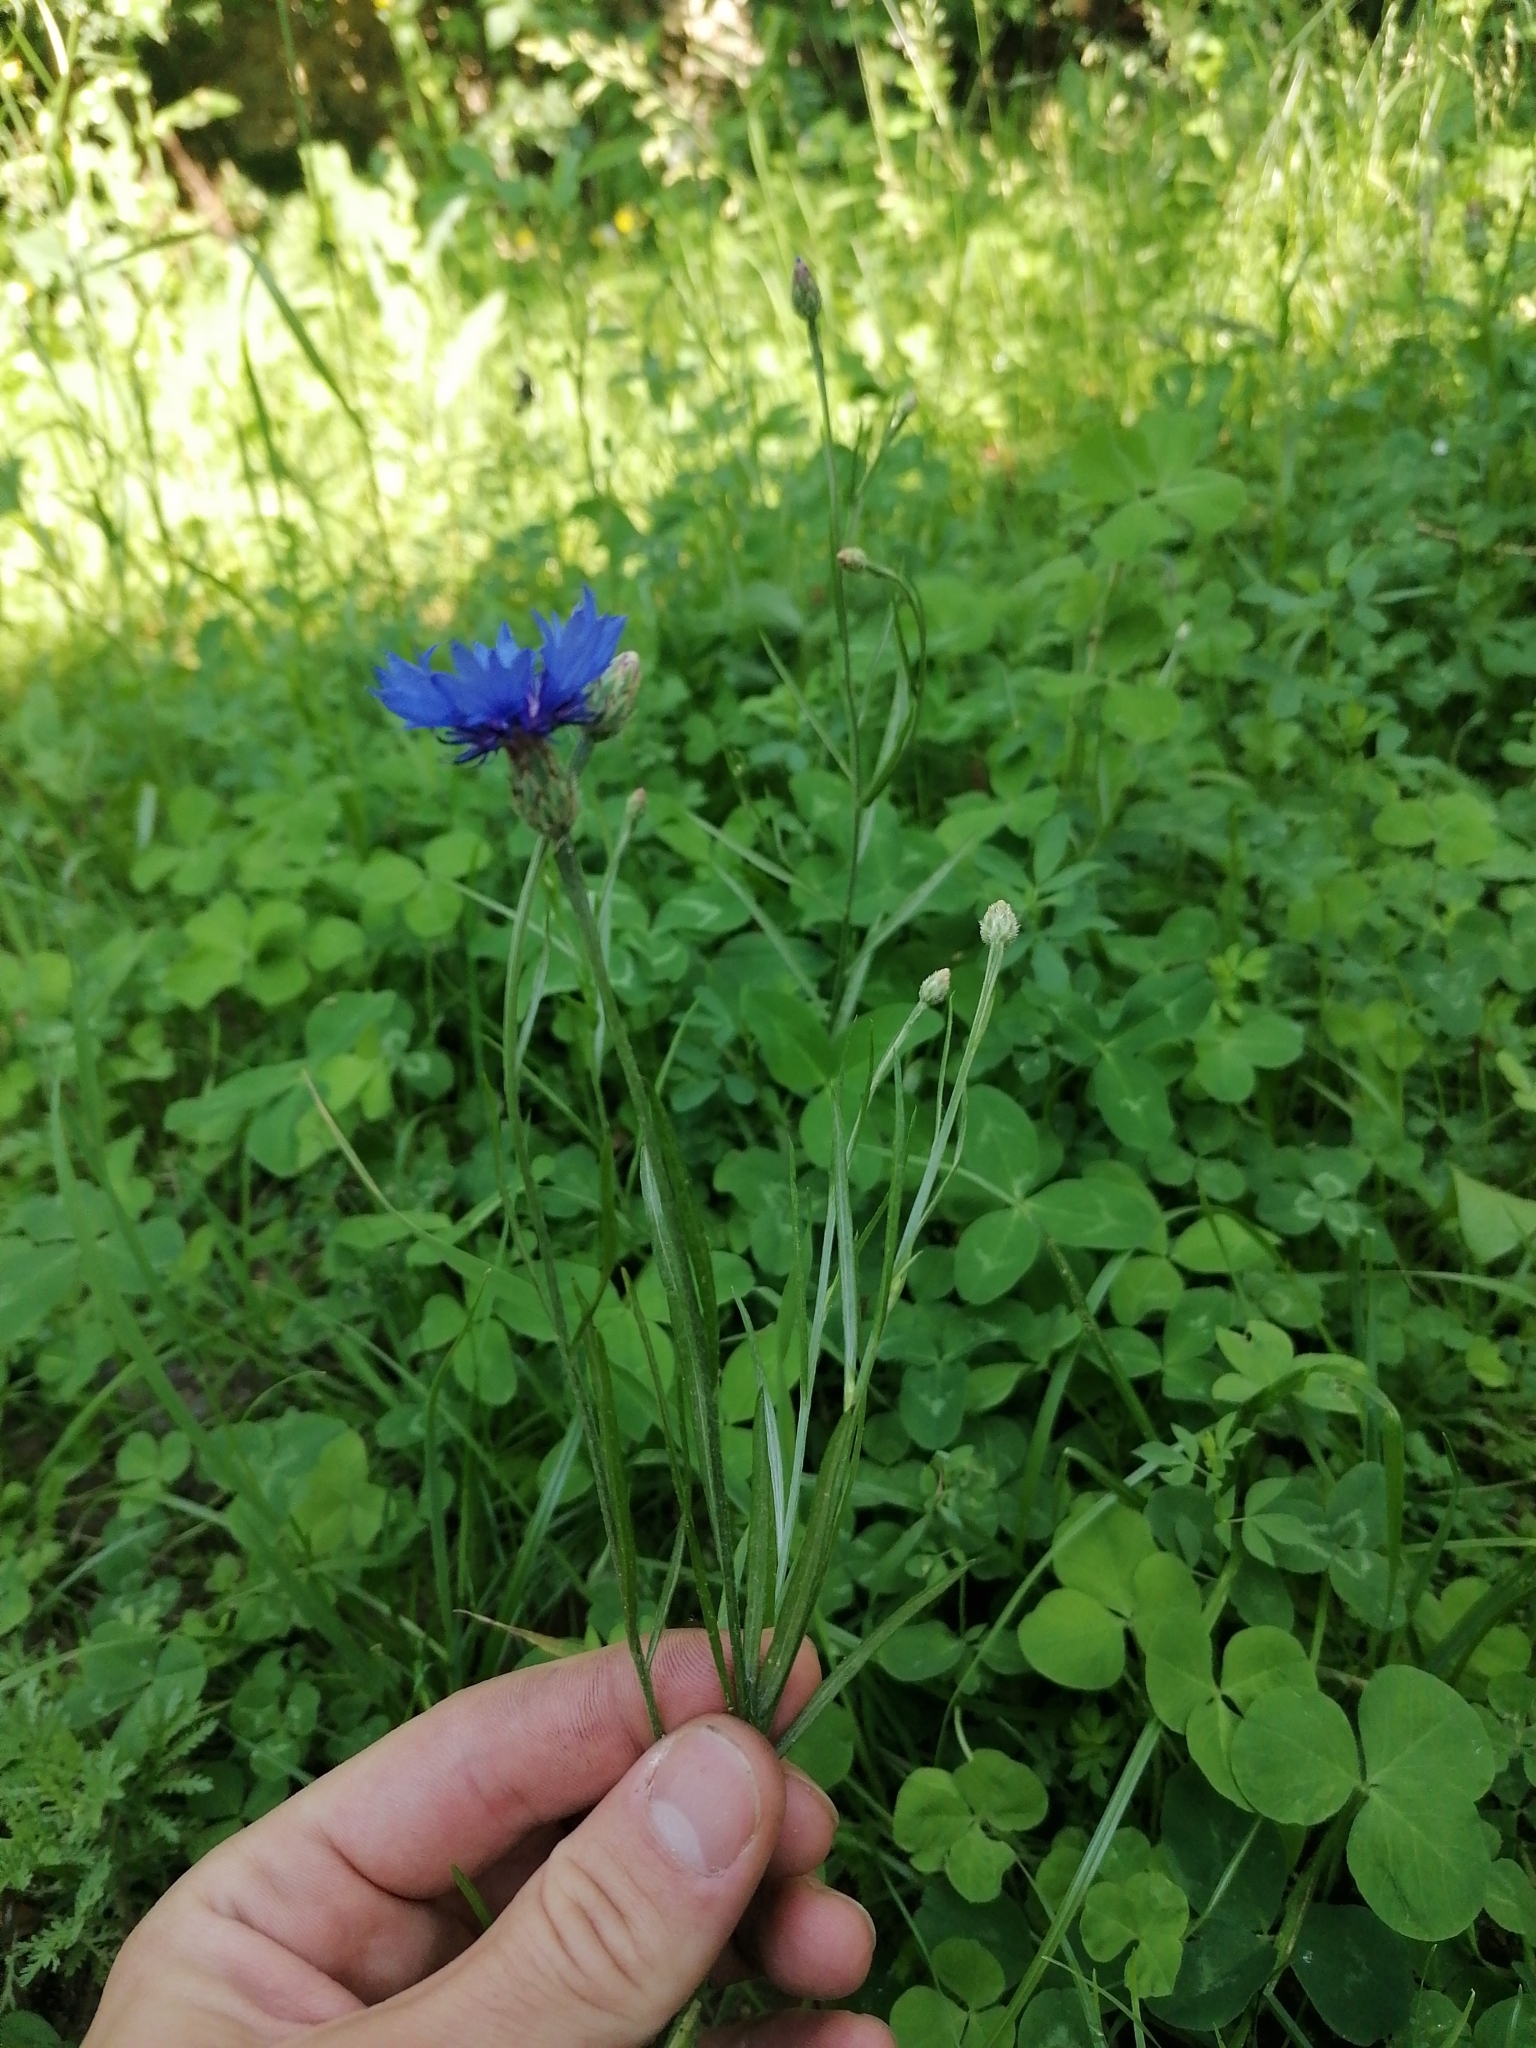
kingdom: Plantae
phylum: Tracheophyta
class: Magnoliopsida
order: Asterales
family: Asteraceae
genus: Centaurea
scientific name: Centaurea cyanus
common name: Cornflower
